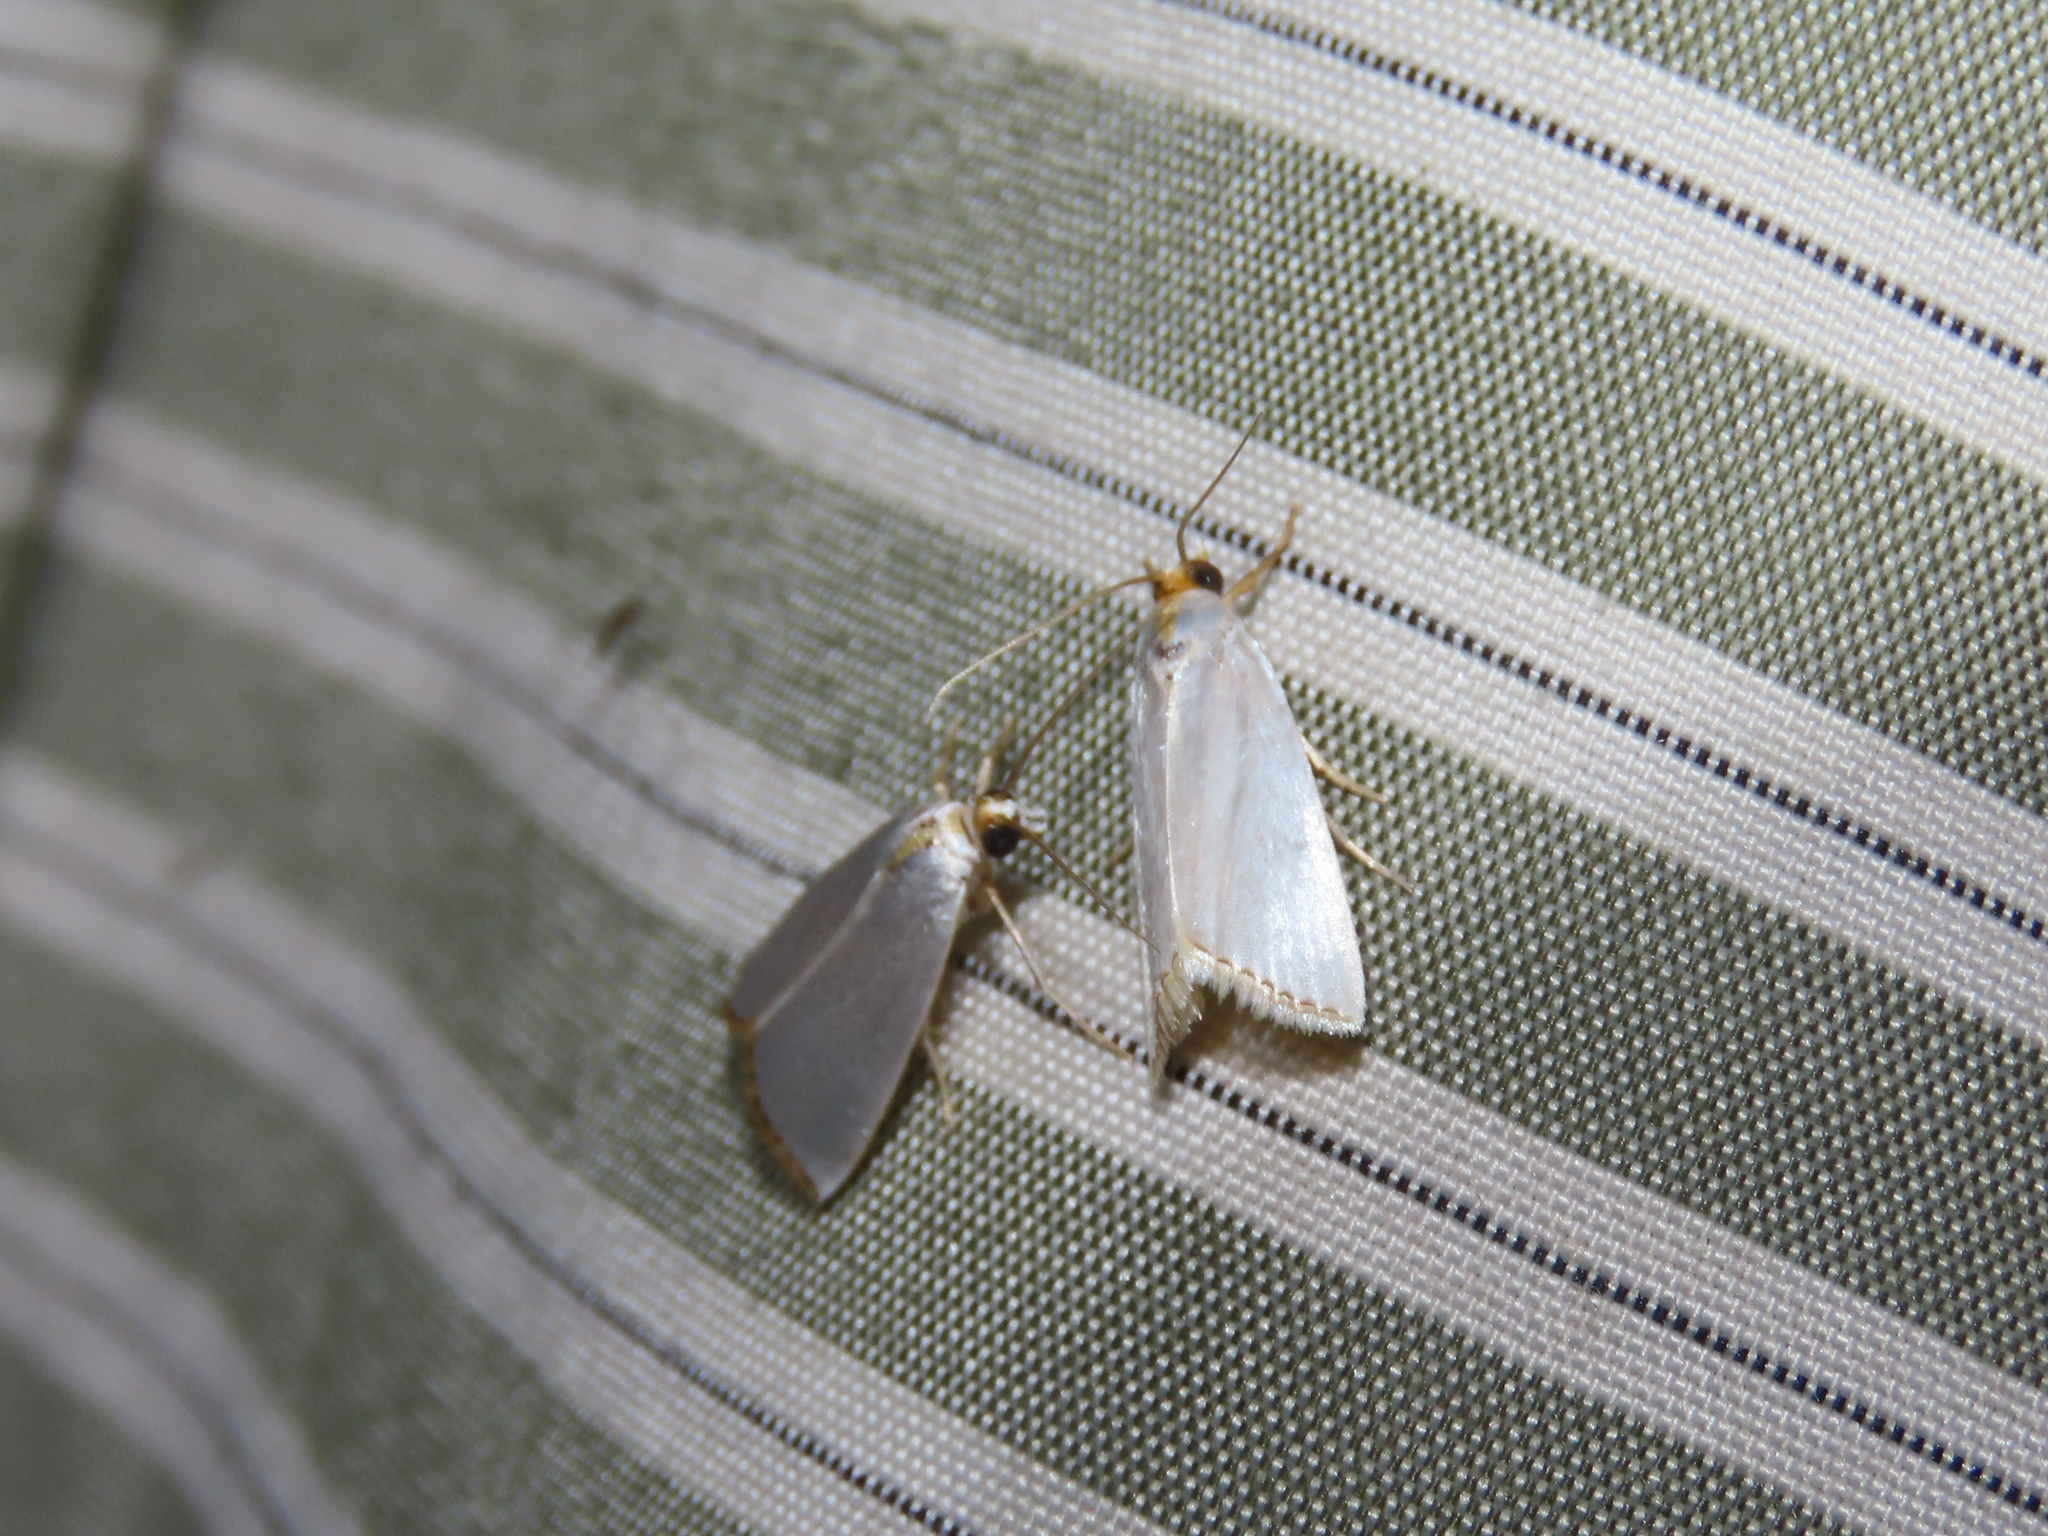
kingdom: Animalia
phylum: Arthropoda
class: Insecta
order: Lepidoptera
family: Crambidae
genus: Argyria
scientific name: Argyria nivalis
